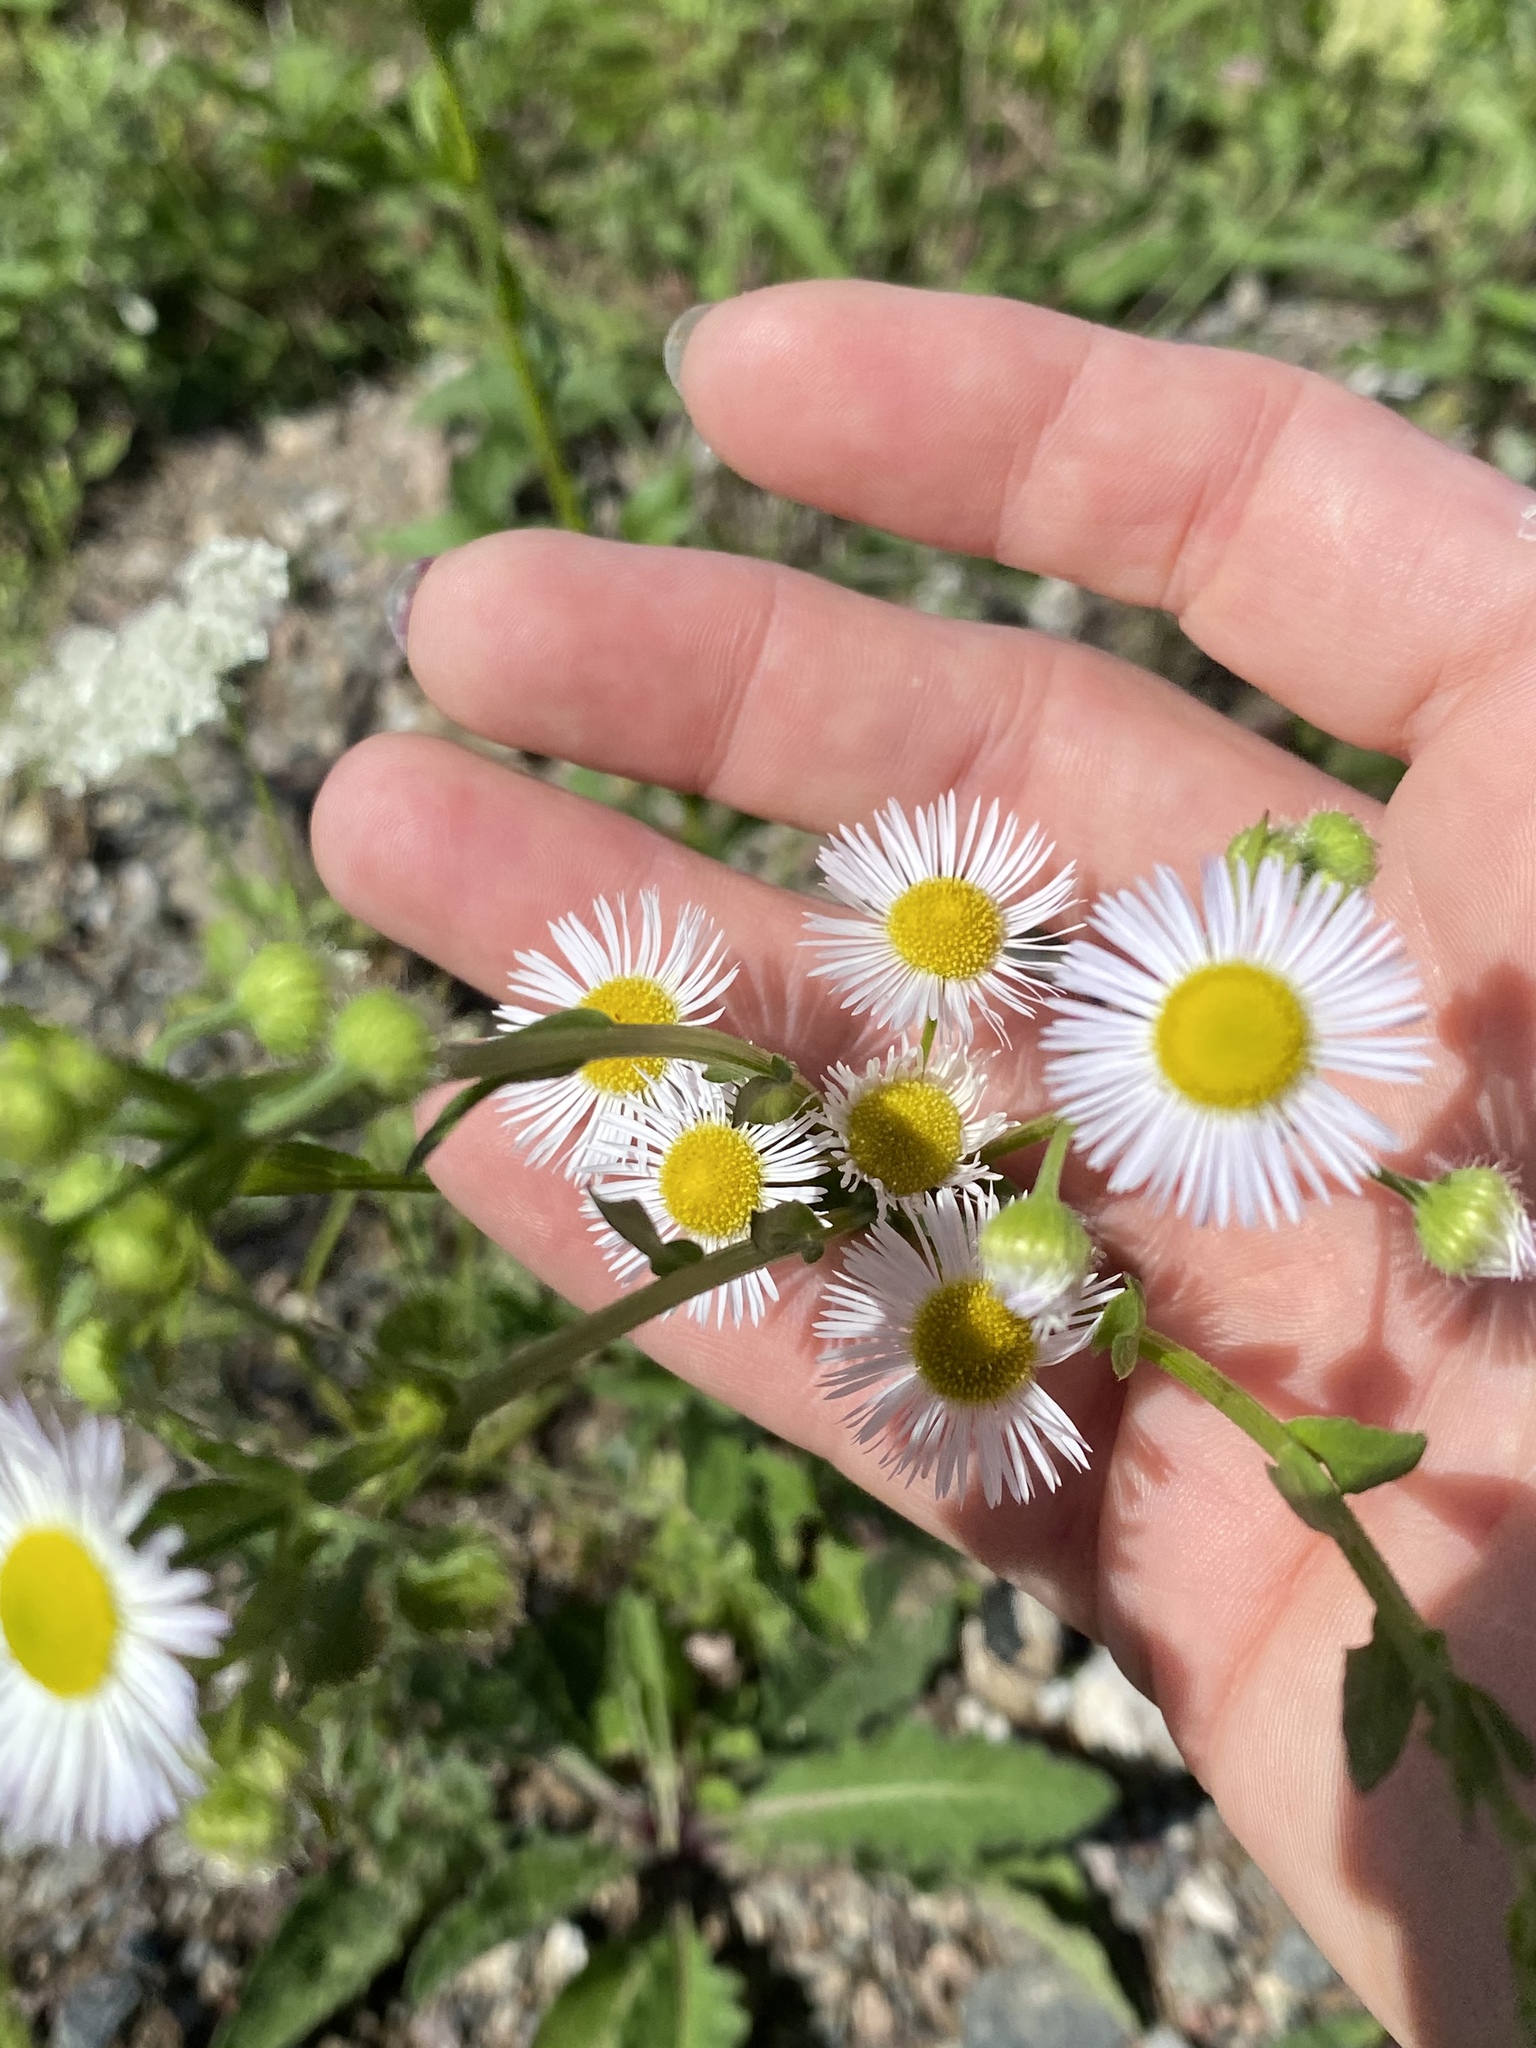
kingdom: Plantae
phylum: Tracheophyta
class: Magnoliopsida
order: Asterales
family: Asteraceae
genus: Erigeron
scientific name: Erigeron strigosus
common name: Common eastern fleabane
